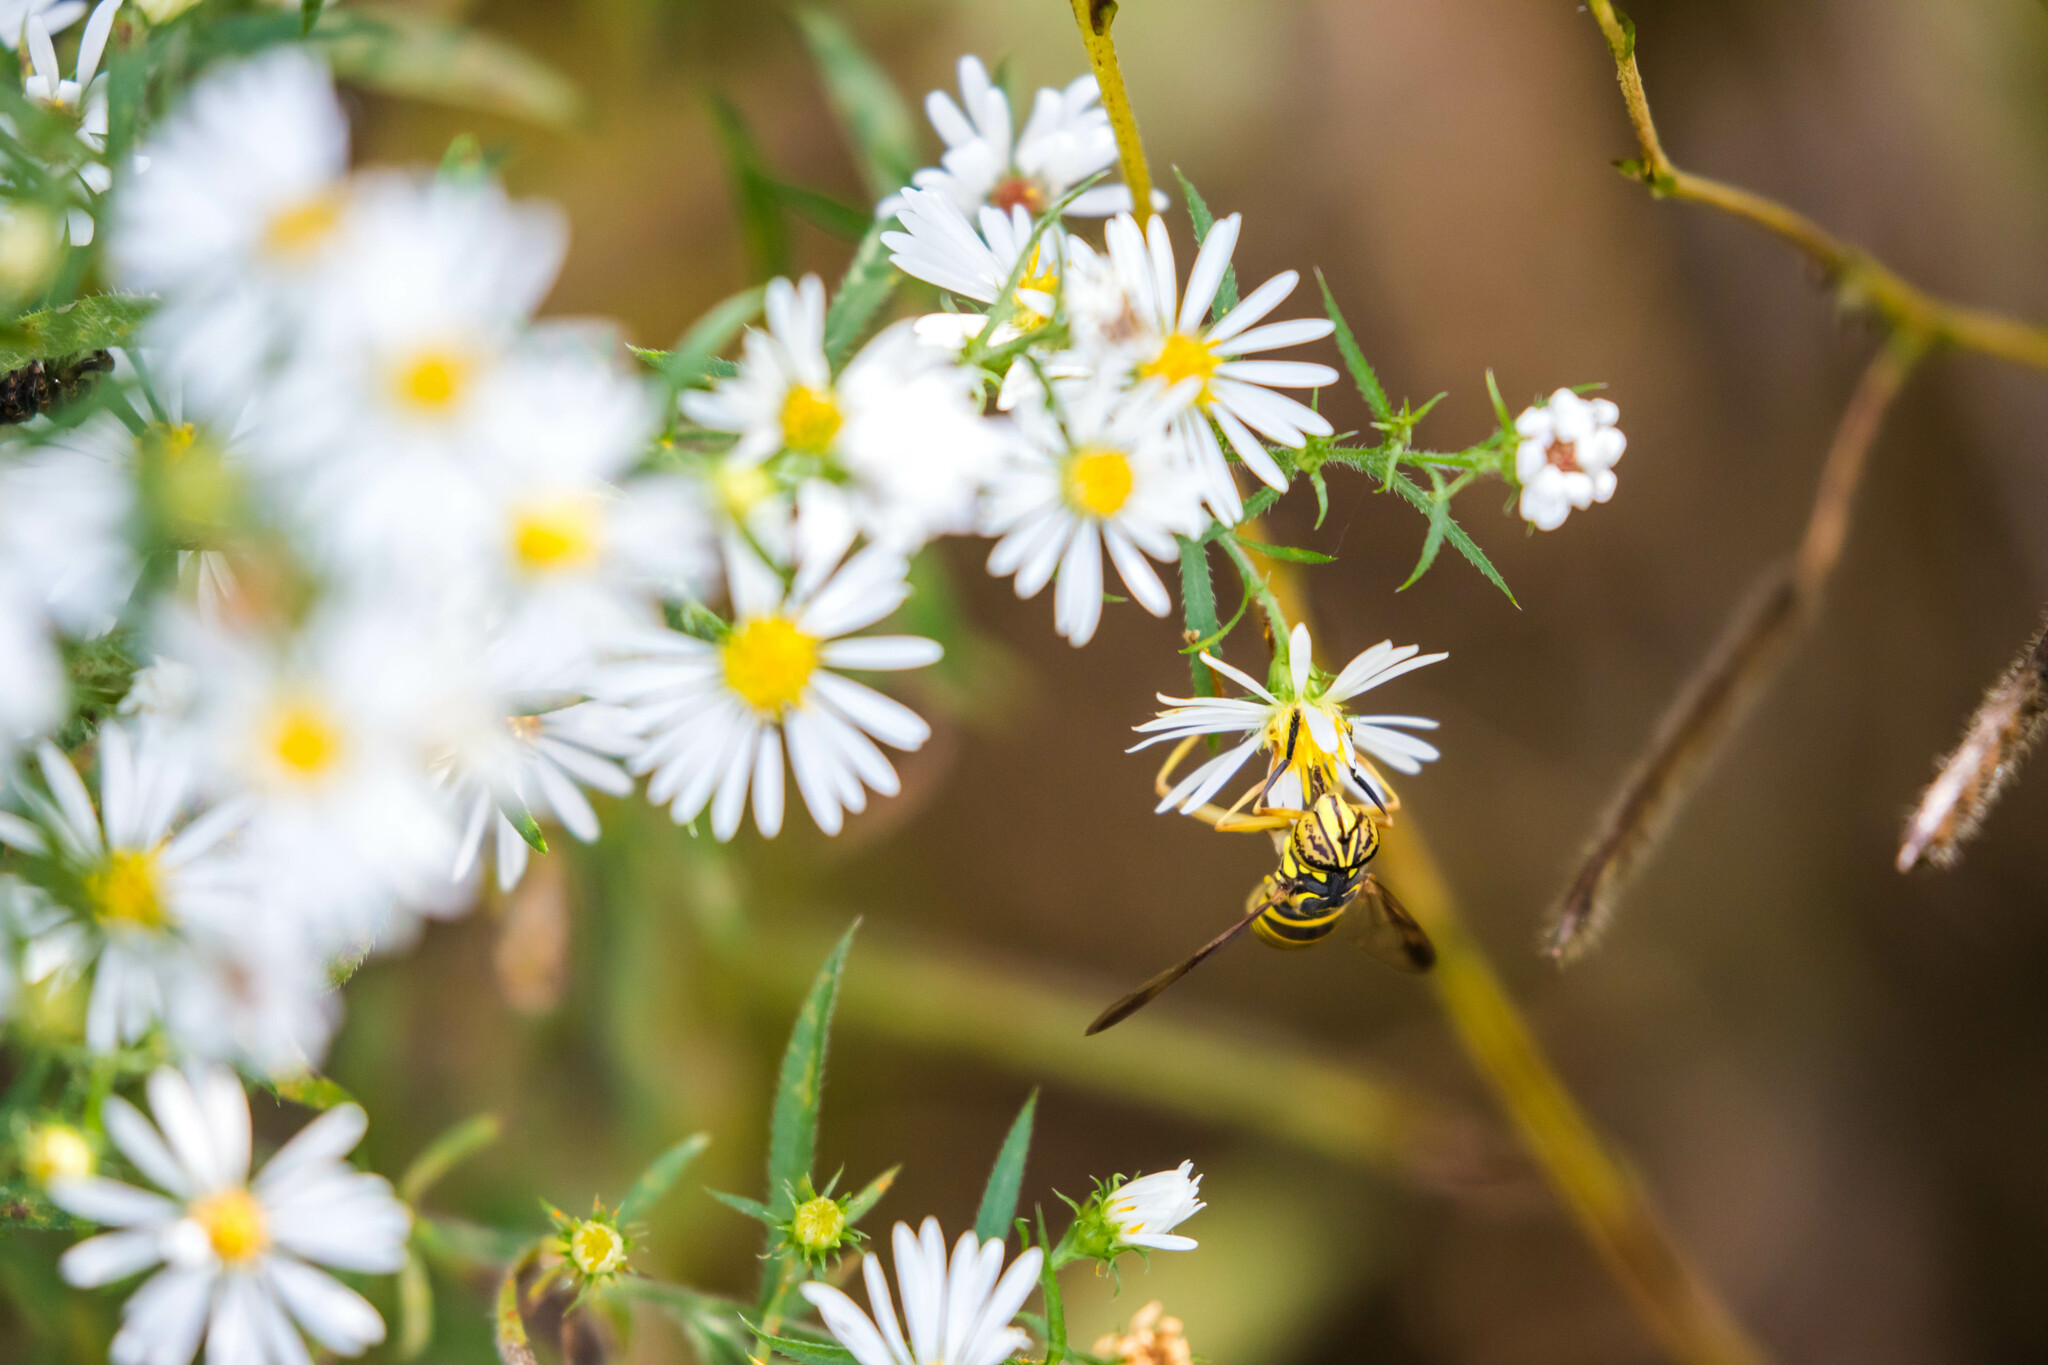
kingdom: Animalia
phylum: Arthropoda
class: Insecta
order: Diptera
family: Syrphidae
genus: Spilomyia
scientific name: Spilomyia longicornis
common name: Eastern hornet fly
